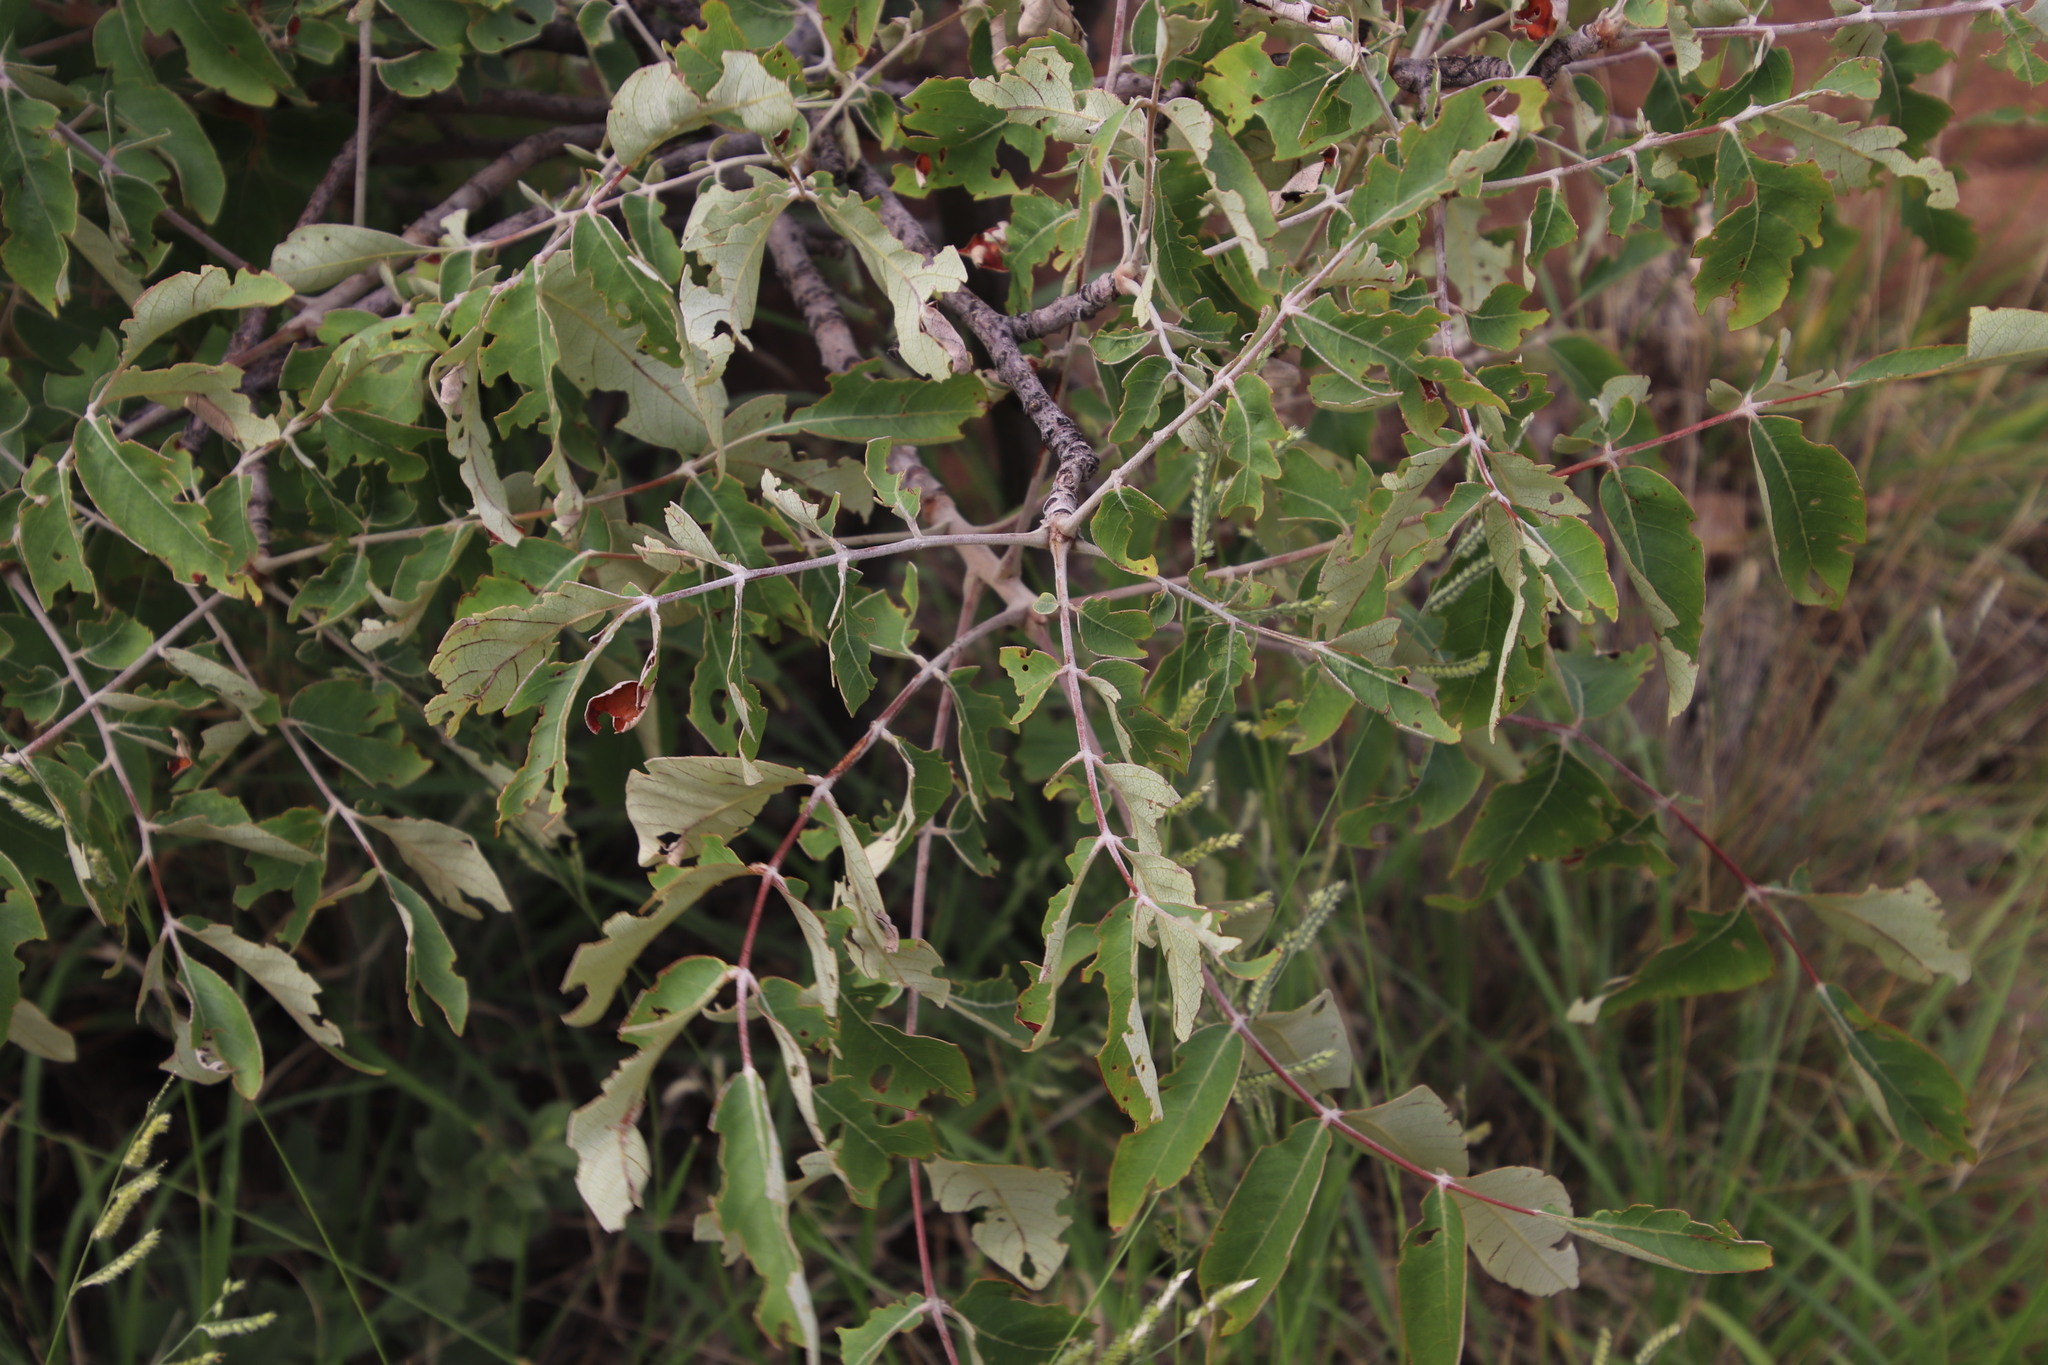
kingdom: Plantae
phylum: Tracheophyta
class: Magnoliopsida
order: Sapindales
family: Anacardiaceae
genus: Lannea
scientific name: Lannea discolor
